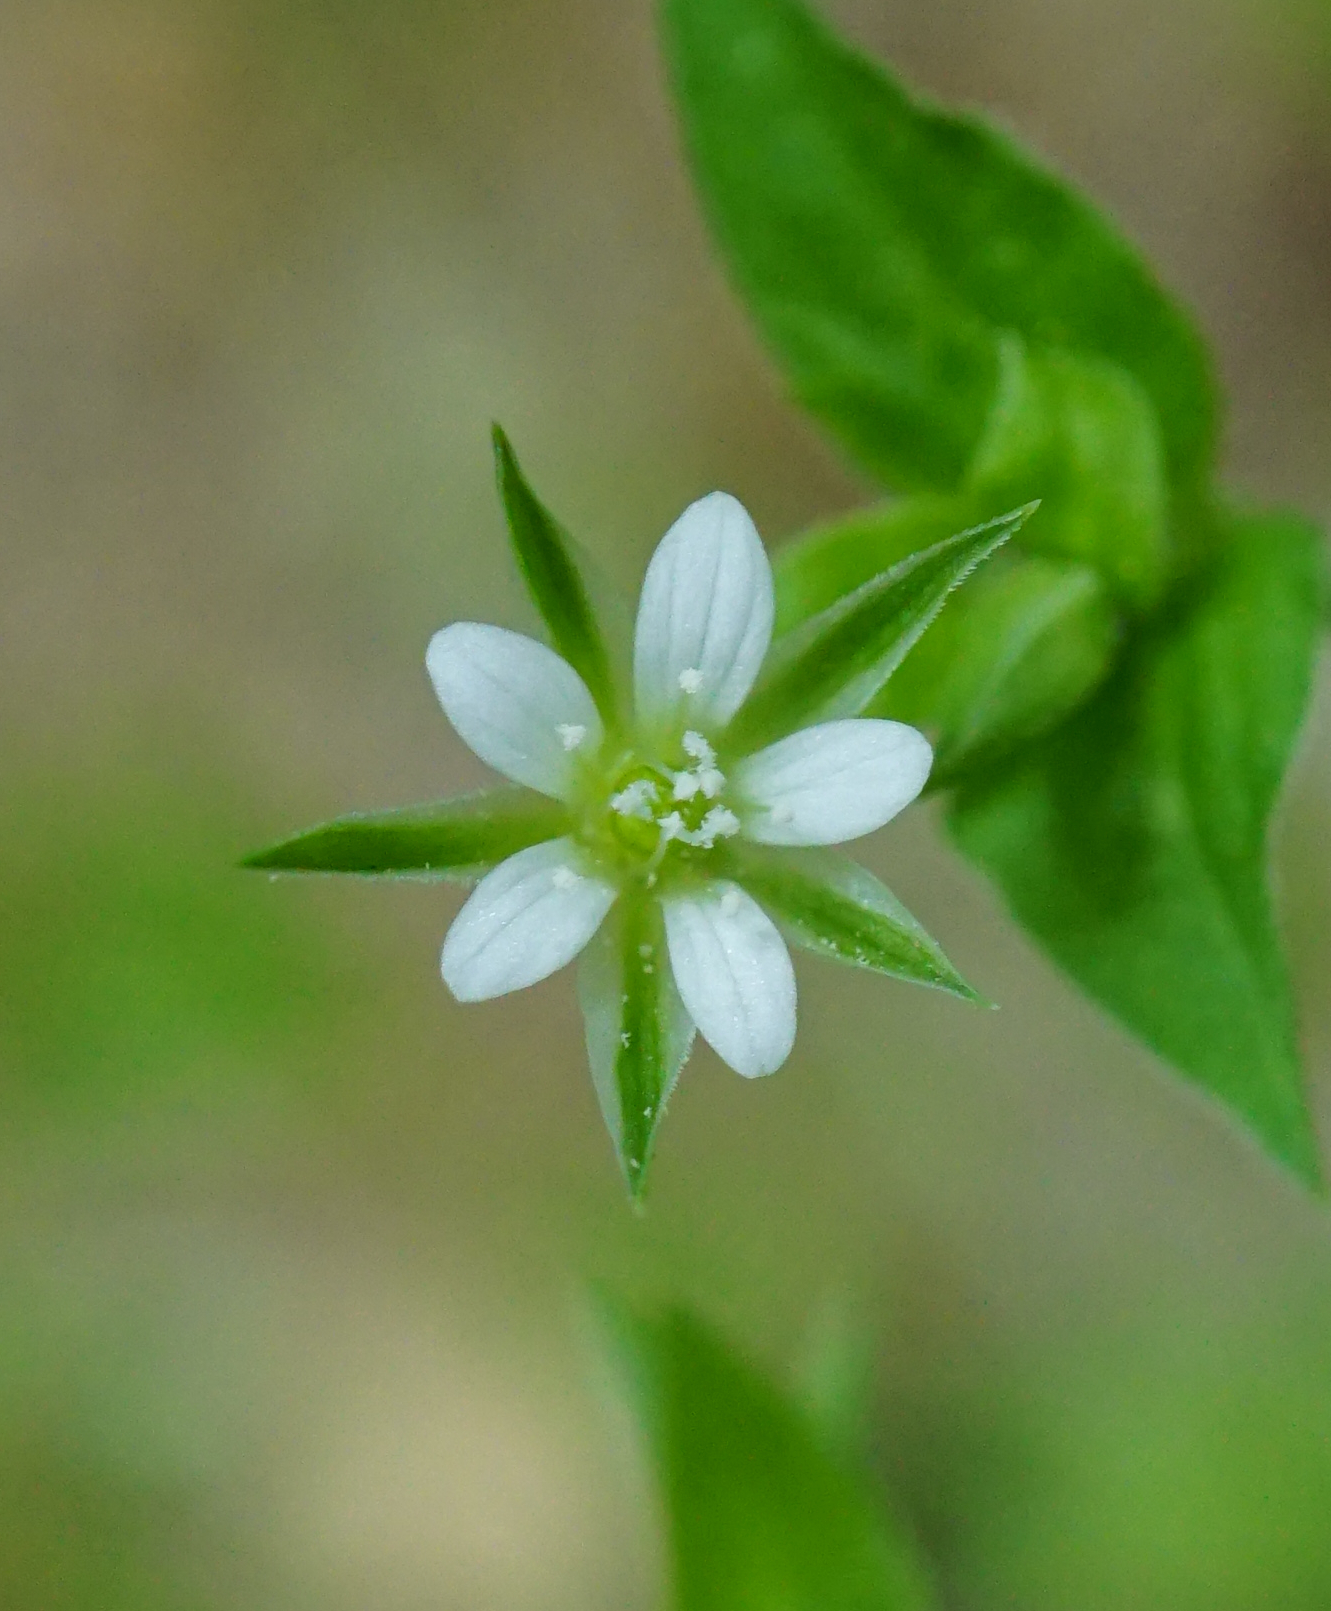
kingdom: Plantae
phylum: Tracheophyta
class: Magnoliopsida
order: Caryophyllales
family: Caryophyllaceae
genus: Moehringia
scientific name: Moehringia trinervia
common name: Three-nerved sandwort
